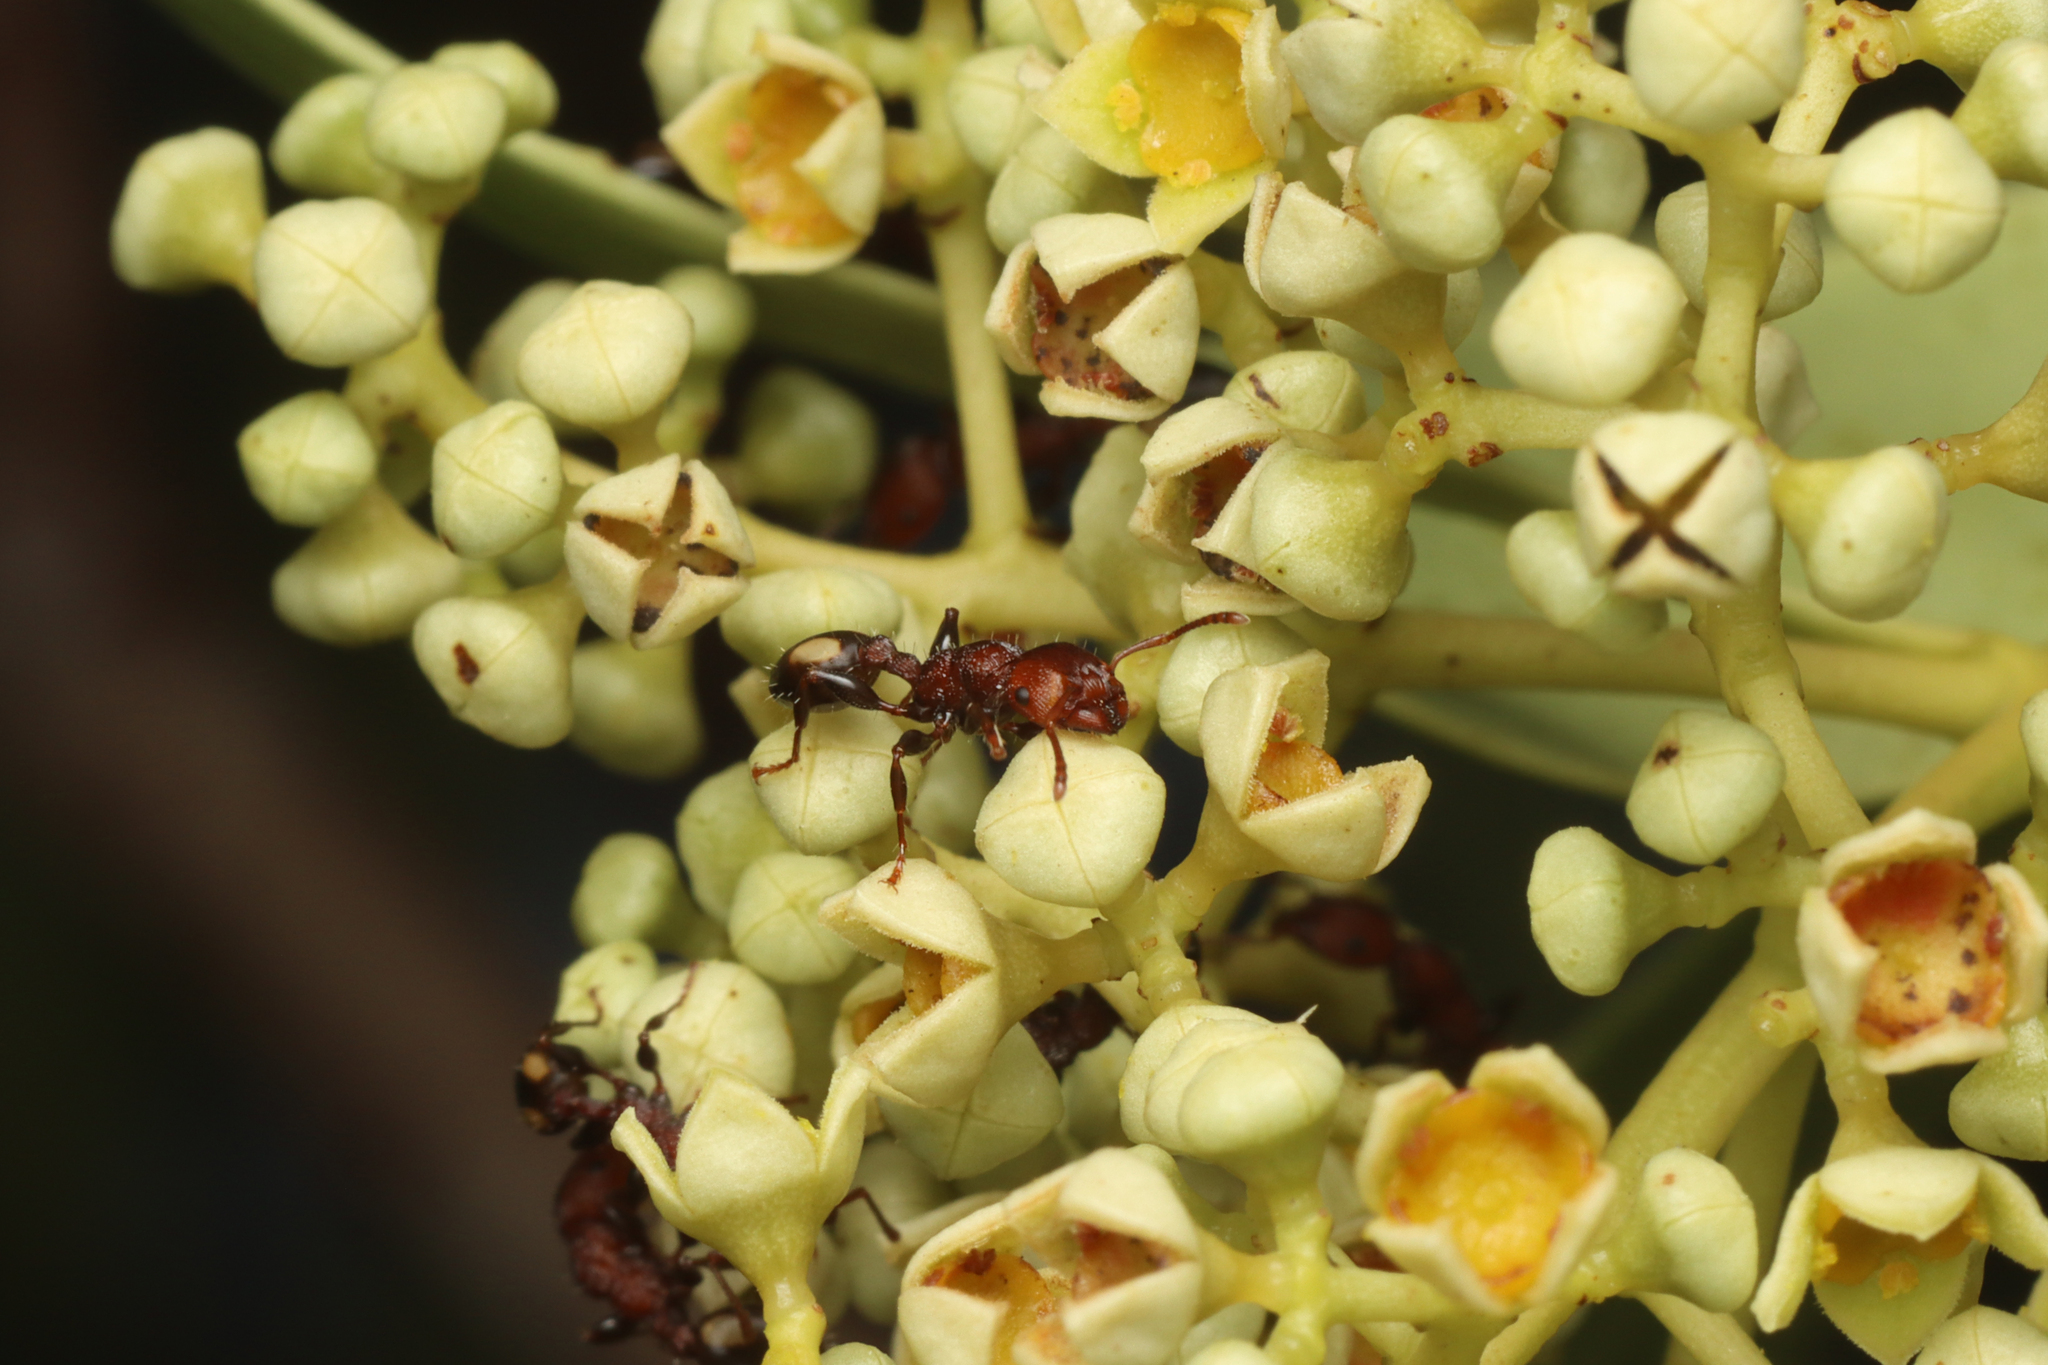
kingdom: Animalia
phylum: Arthropoda
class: Insecta
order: Hymenoptera
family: Formicidae
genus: Podomyrma
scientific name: Podomyrma adelaidae
